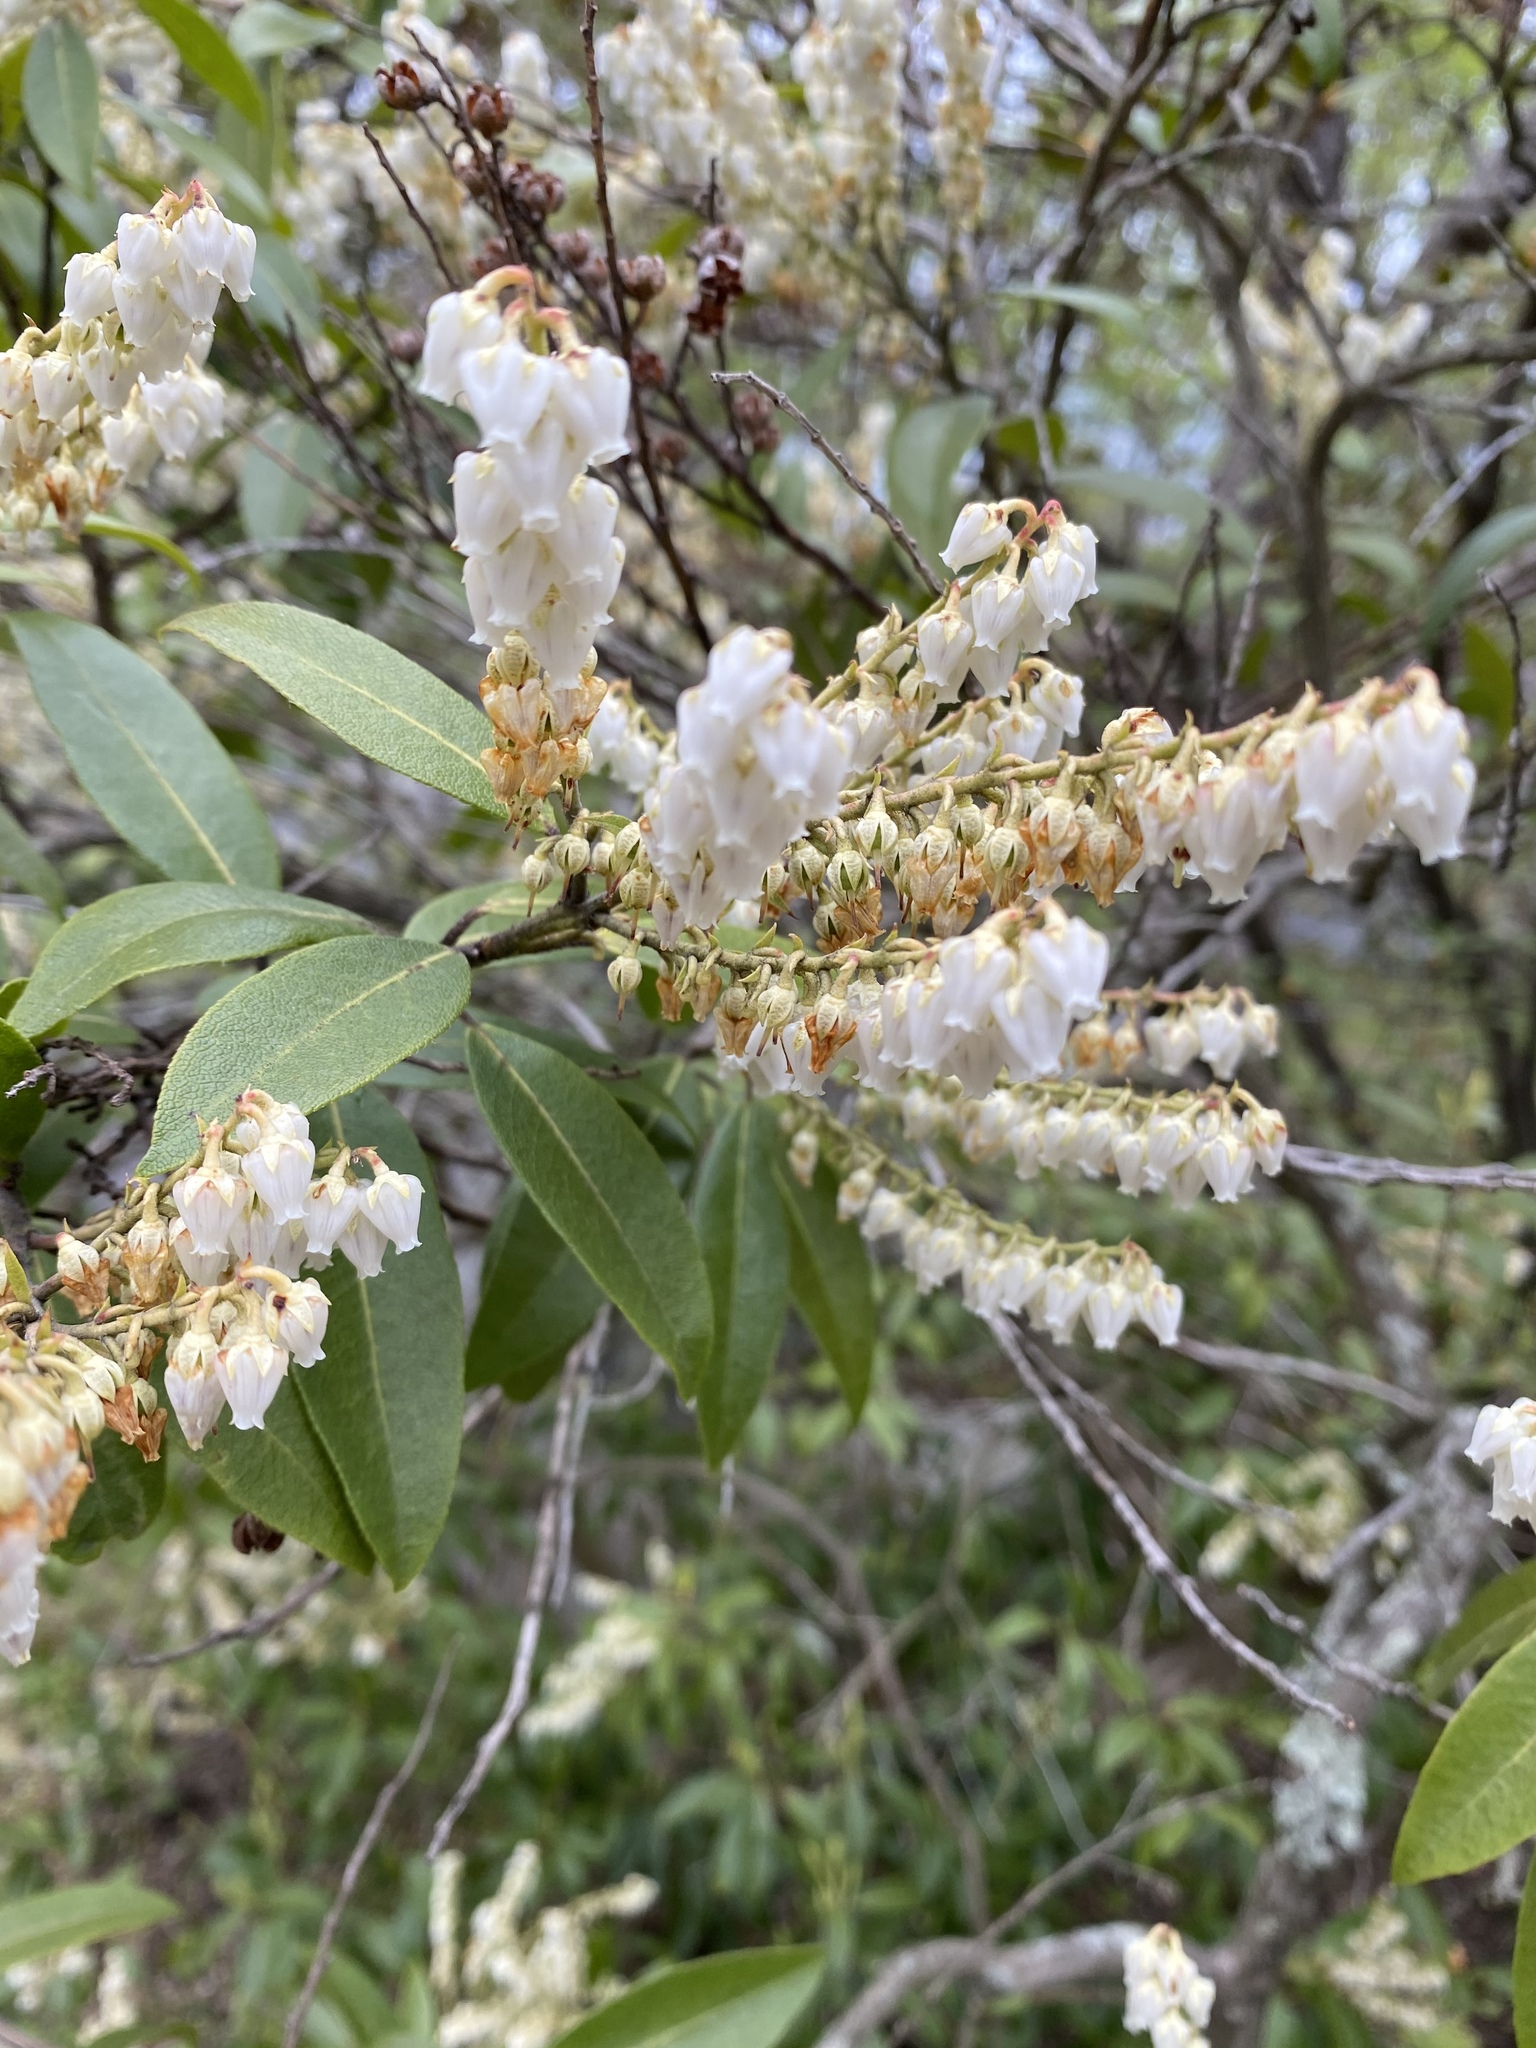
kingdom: Plantae
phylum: Tracheophyta
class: Magnoliopsida
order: Ericales
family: Ericaceae
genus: Pieris
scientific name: Pieris japonica
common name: Japanese pieris
